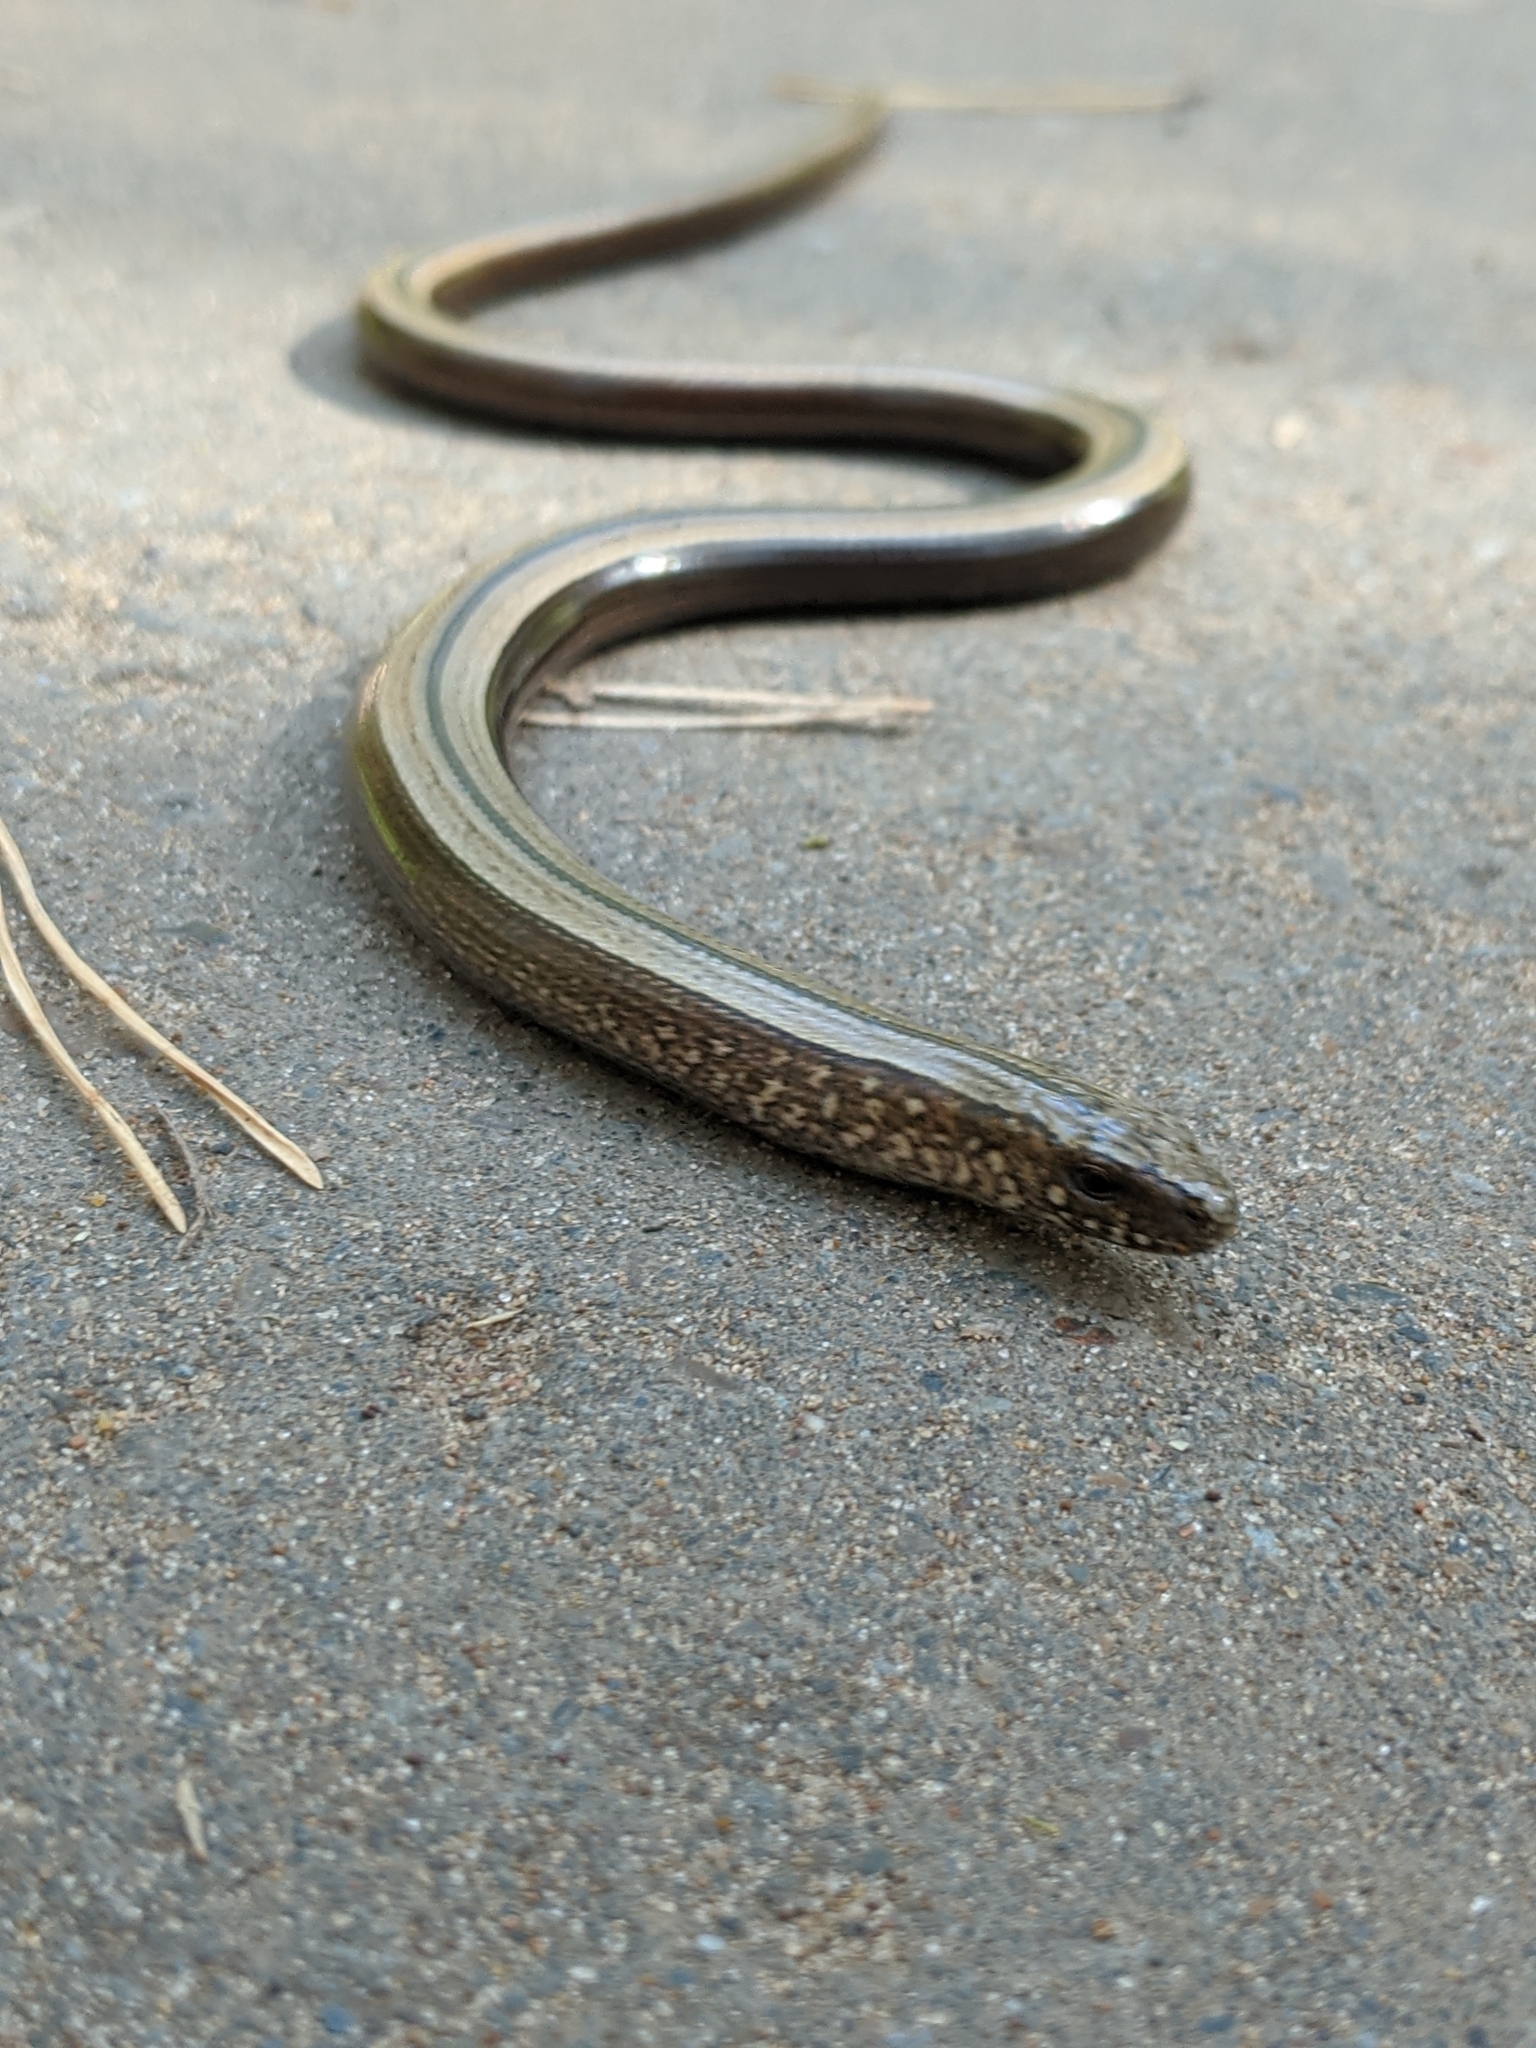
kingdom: Animalia
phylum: Chordata
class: Squamata
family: Anguidae
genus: Anguis
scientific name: Anguis colchica
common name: Slow worm
